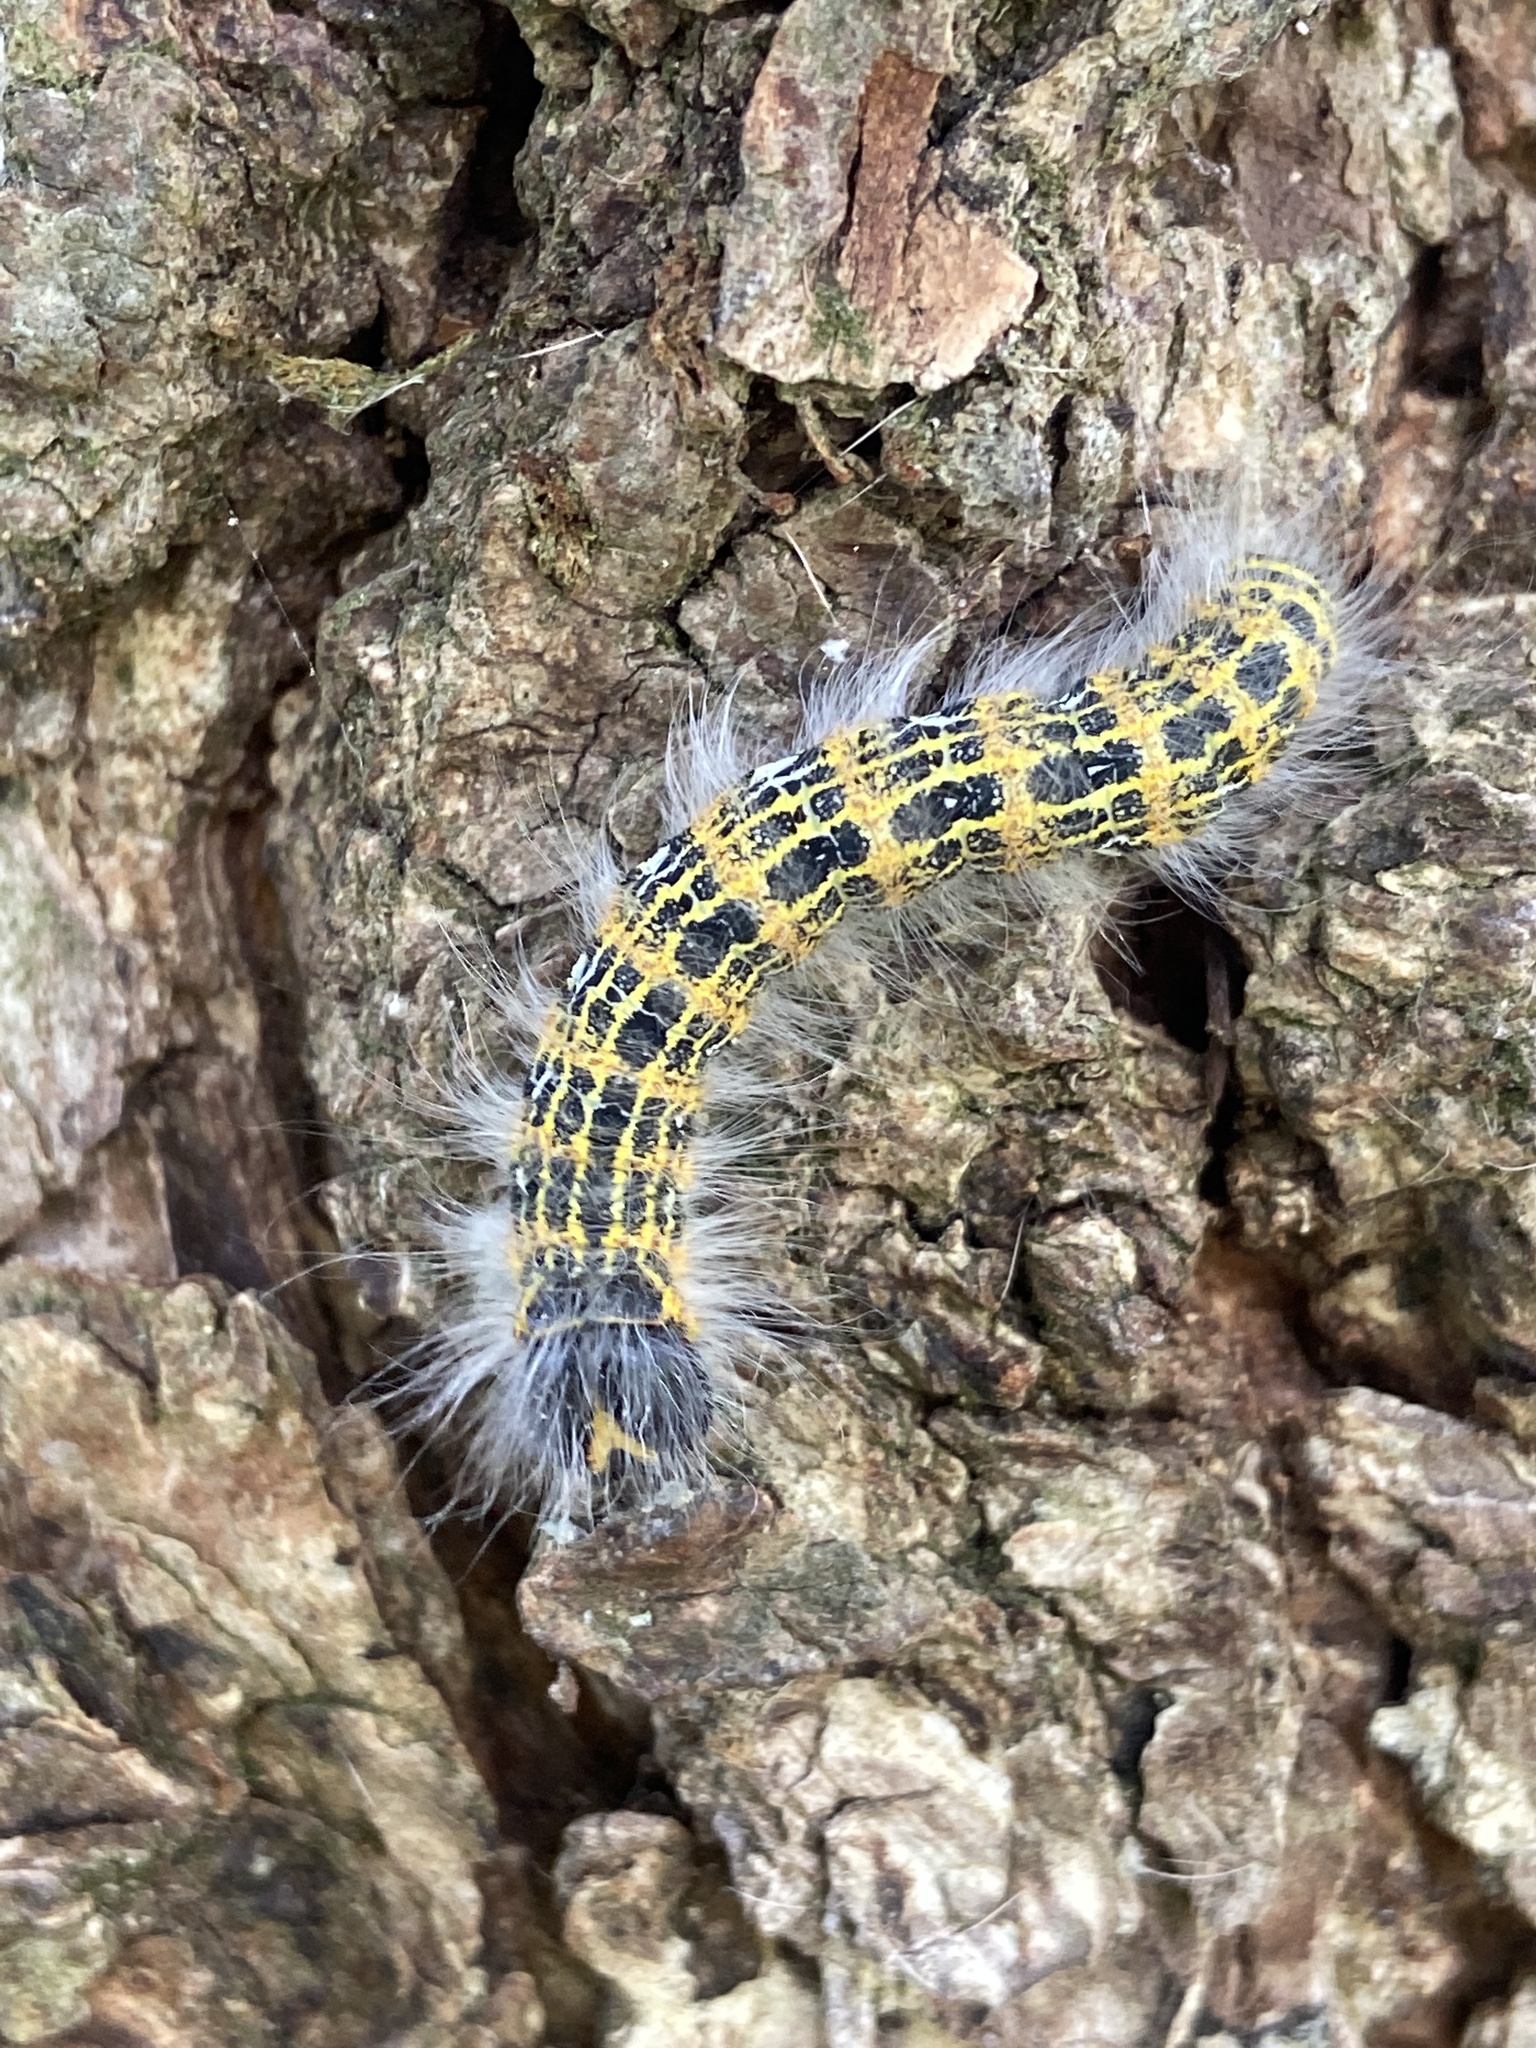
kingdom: Animalia
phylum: Arthropoda
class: Insecta
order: Lepidoptera
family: Notodontidae
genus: Phalera
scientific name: Phalera bucephala
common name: Buff-tip
